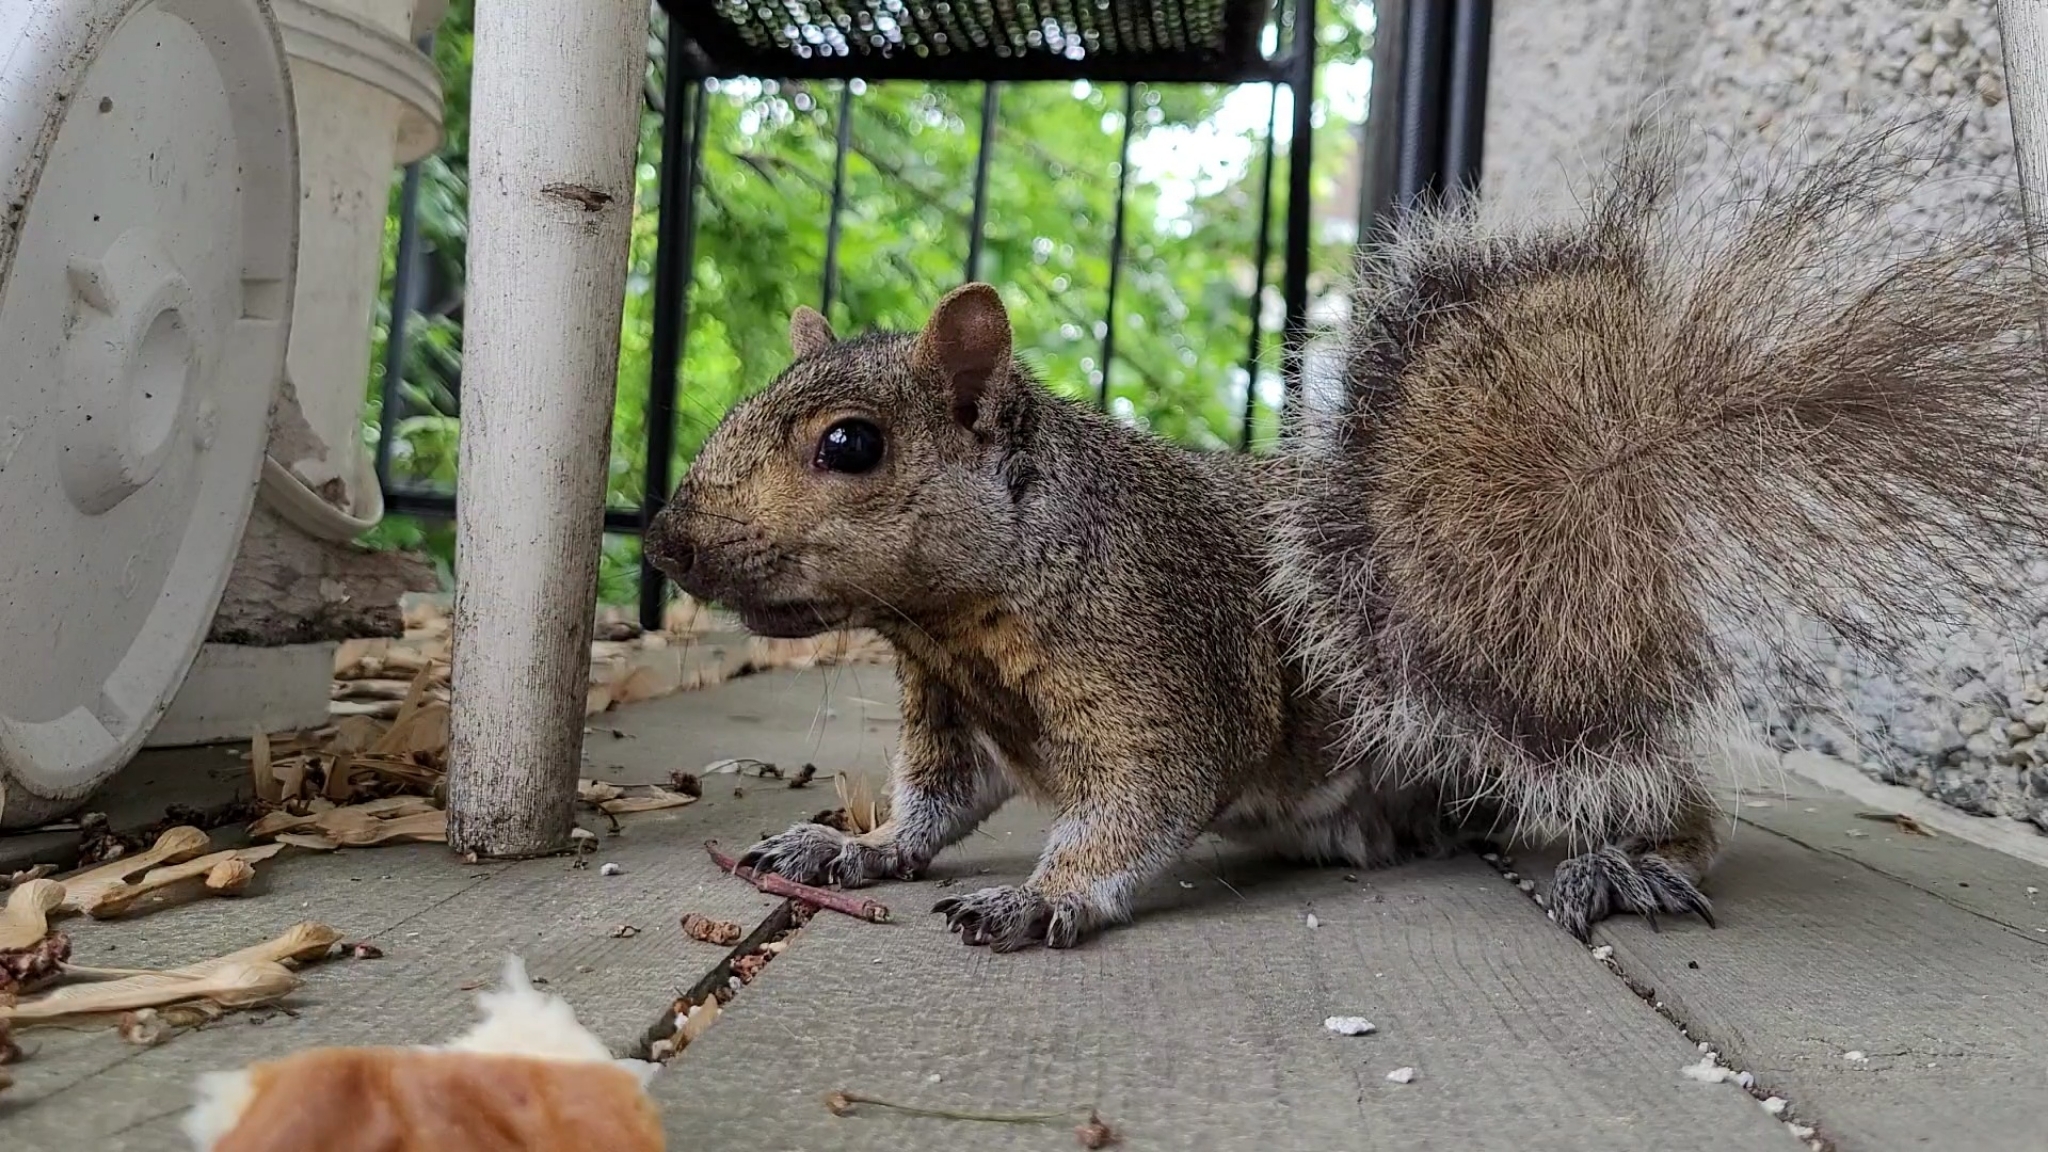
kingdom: Animalia
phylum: Chordata
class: Mammalia
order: Rodentia
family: Sciuridae
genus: Sciurus
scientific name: Sciurus carolinensis
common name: Eastern gray squirrel
